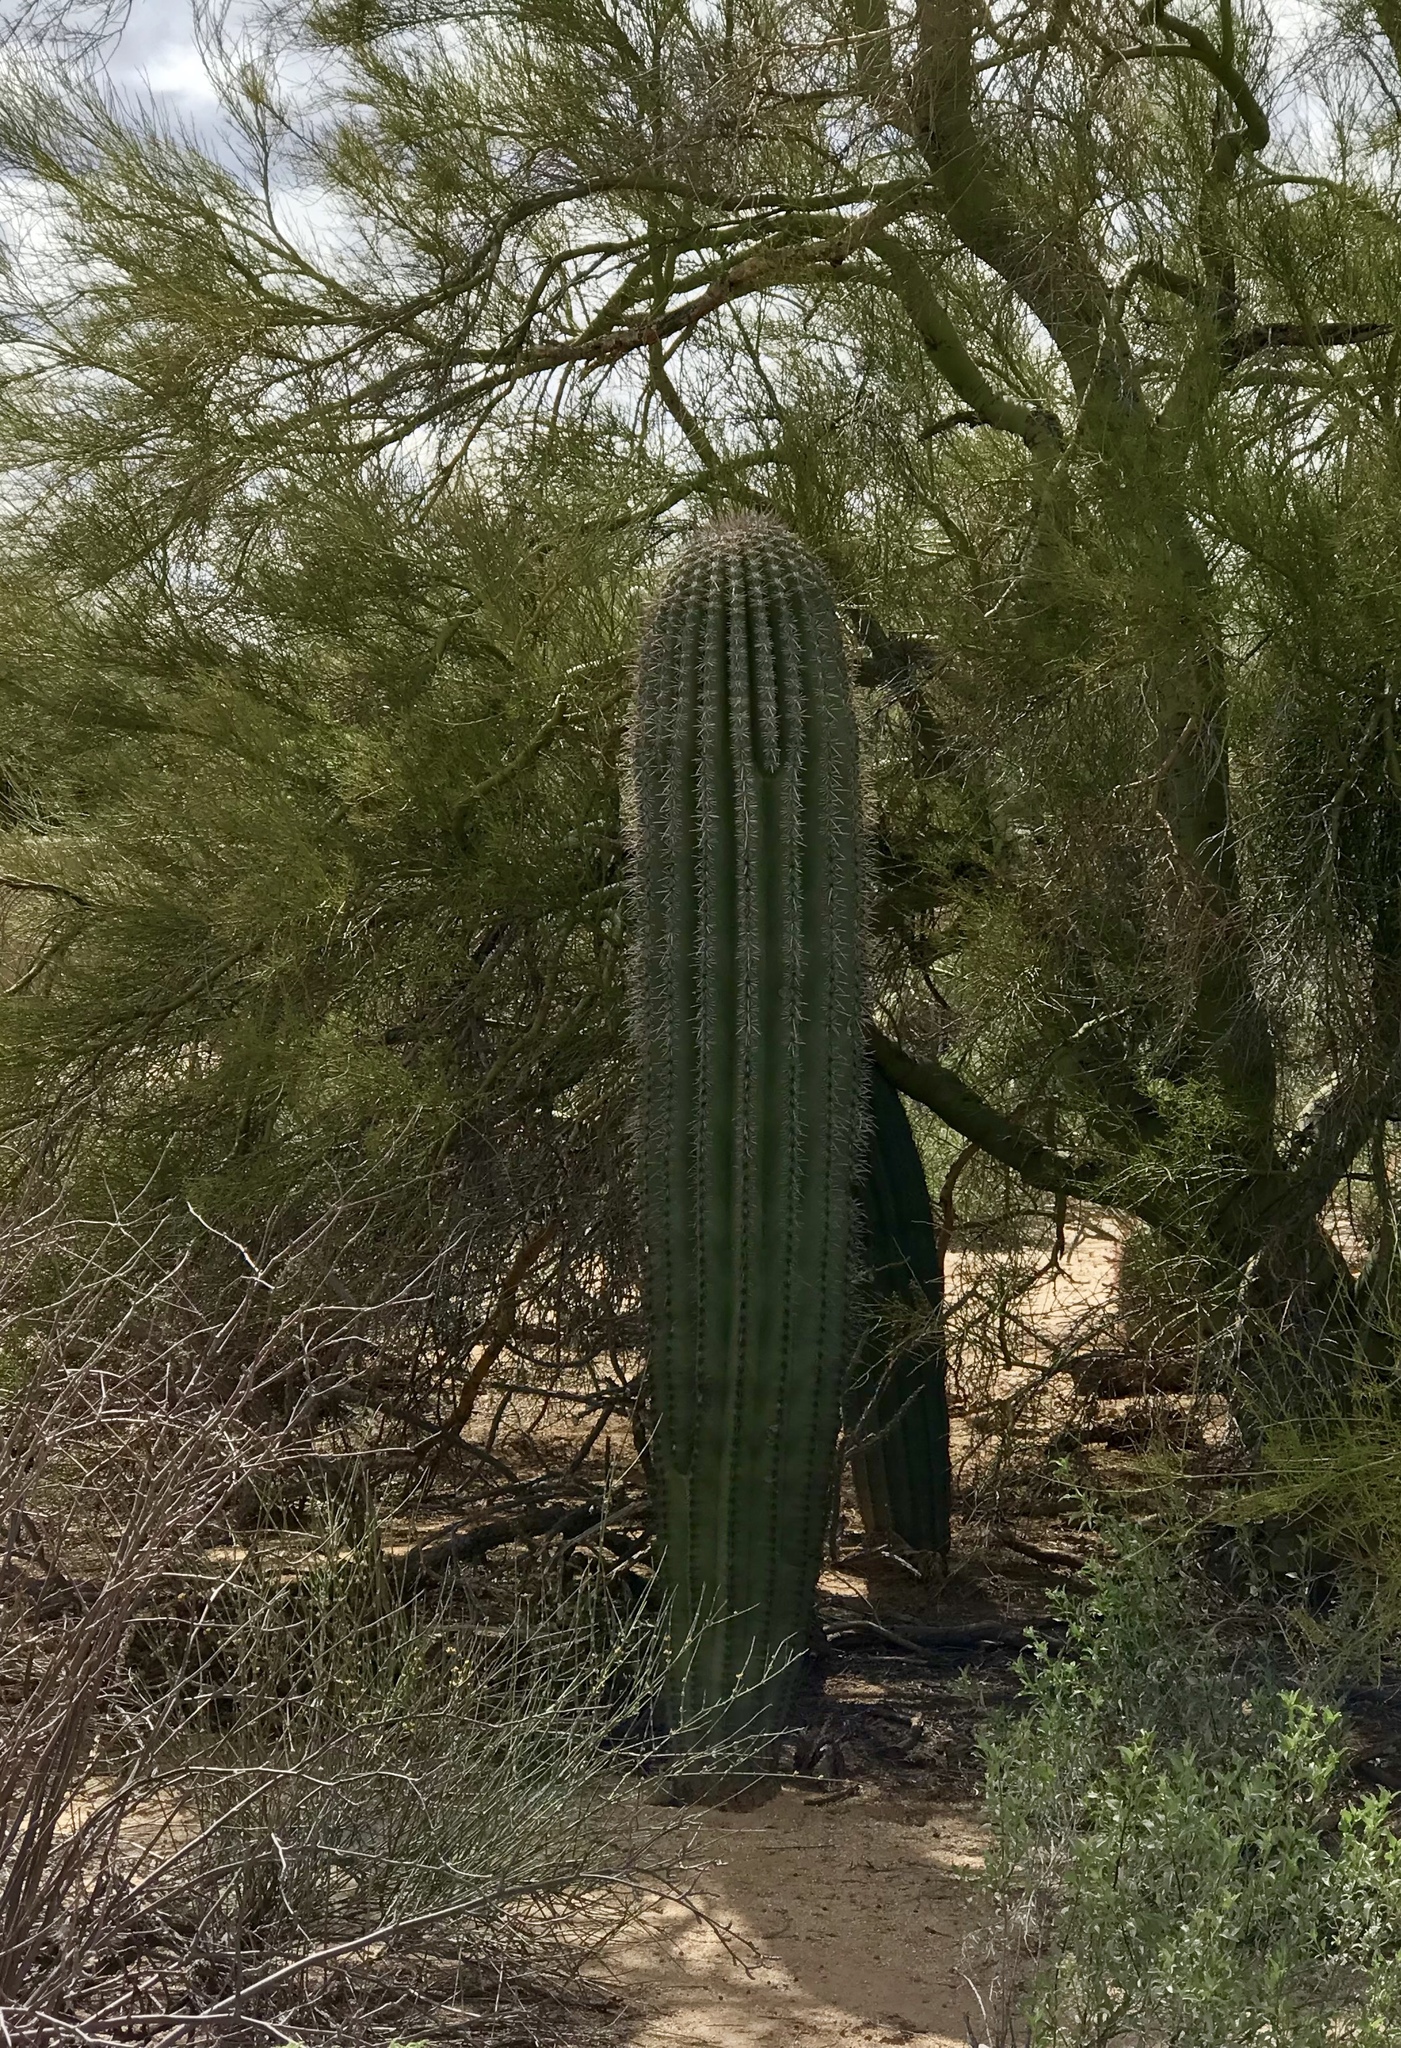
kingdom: Plantae
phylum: Tracheophyta
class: Magnoliopsida
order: Caryophyllales
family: Cactaceae
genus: Carnegiea
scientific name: Carnegiea gigantea
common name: Saguaro
